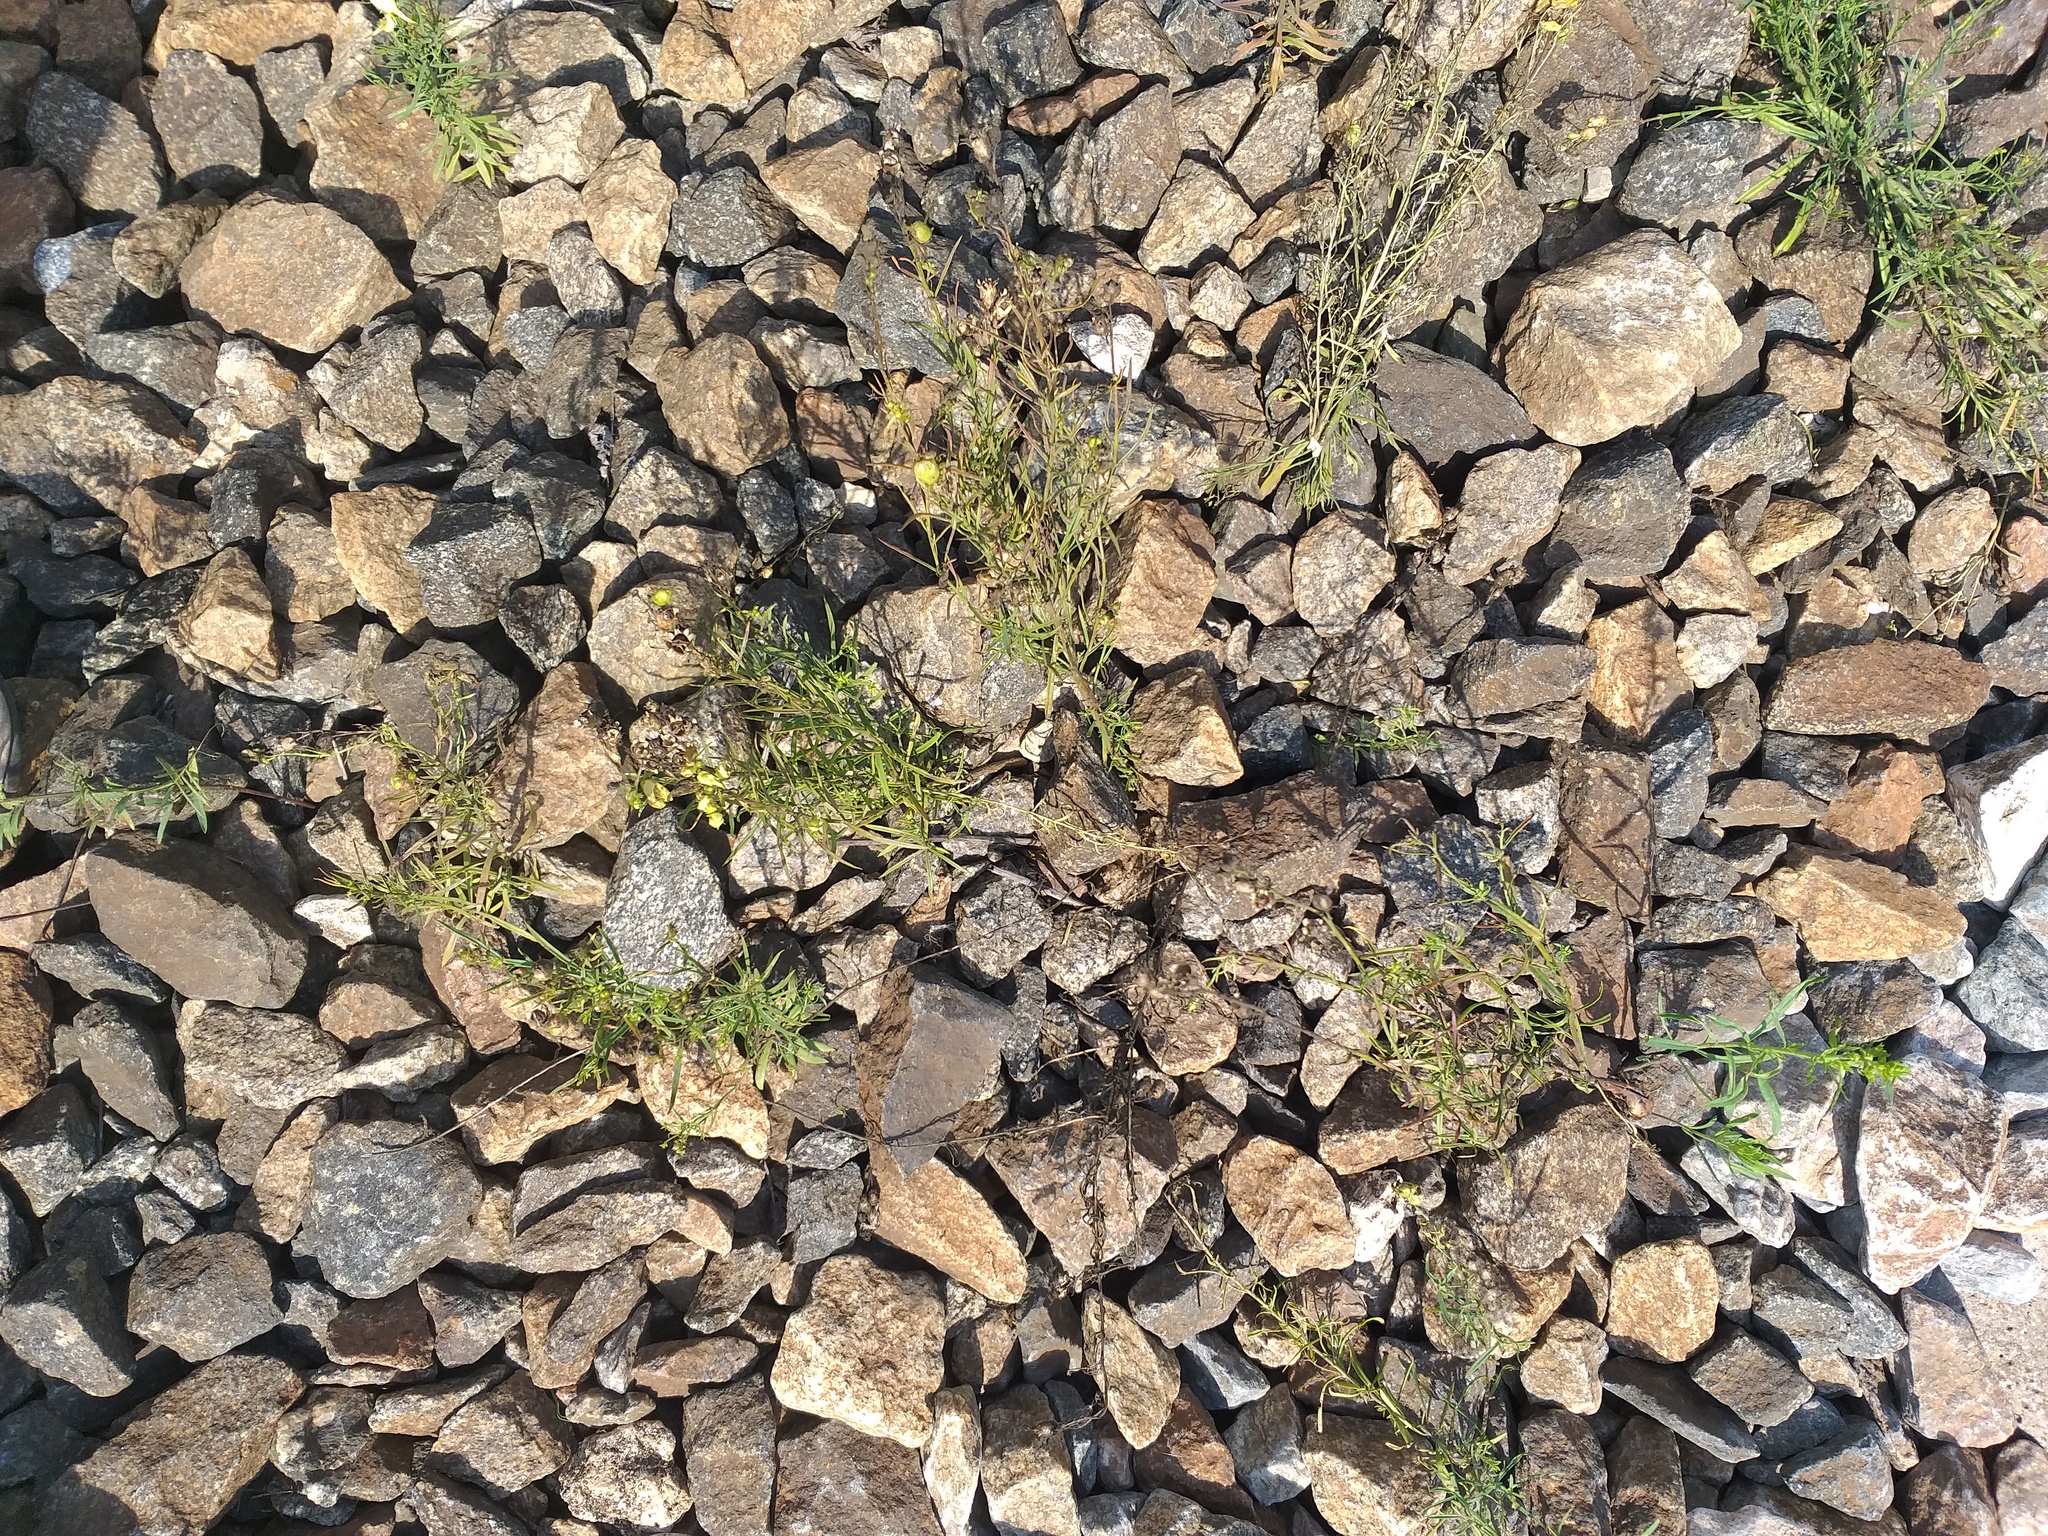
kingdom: Plantae
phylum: Tracheophyta
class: Magnoliopsida
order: Lamiales
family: Plantaginaceae
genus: Linaria
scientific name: Linaria vulgaris
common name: Butter and eggs
